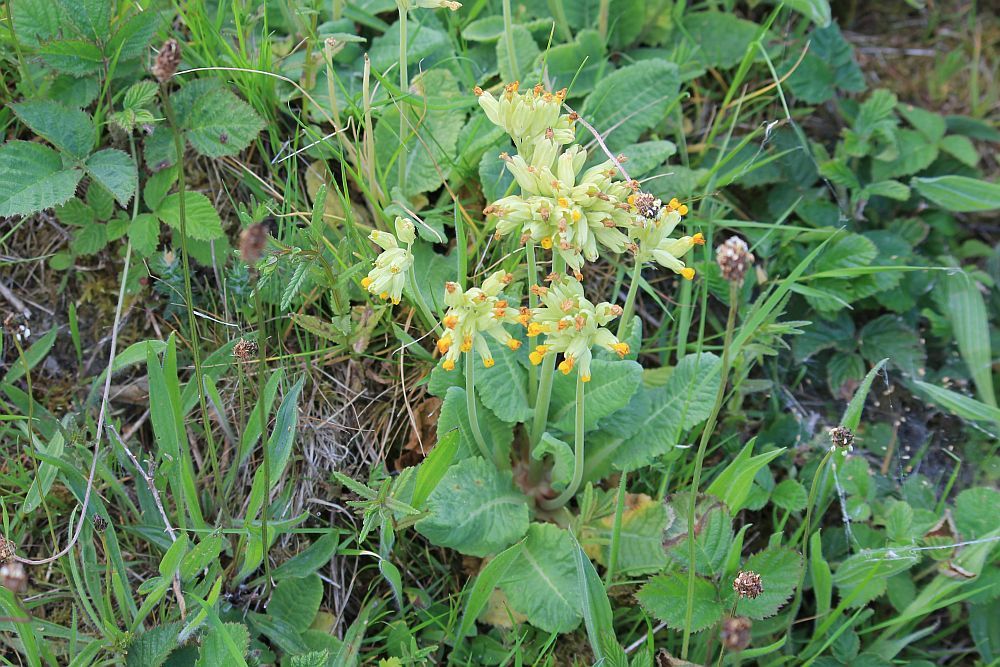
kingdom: Plantae
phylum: Tracheophyta
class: Magnoliopsida
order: Ericales
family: Primulaceae
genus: Primula
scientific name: Primula veris
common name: Cowslip
